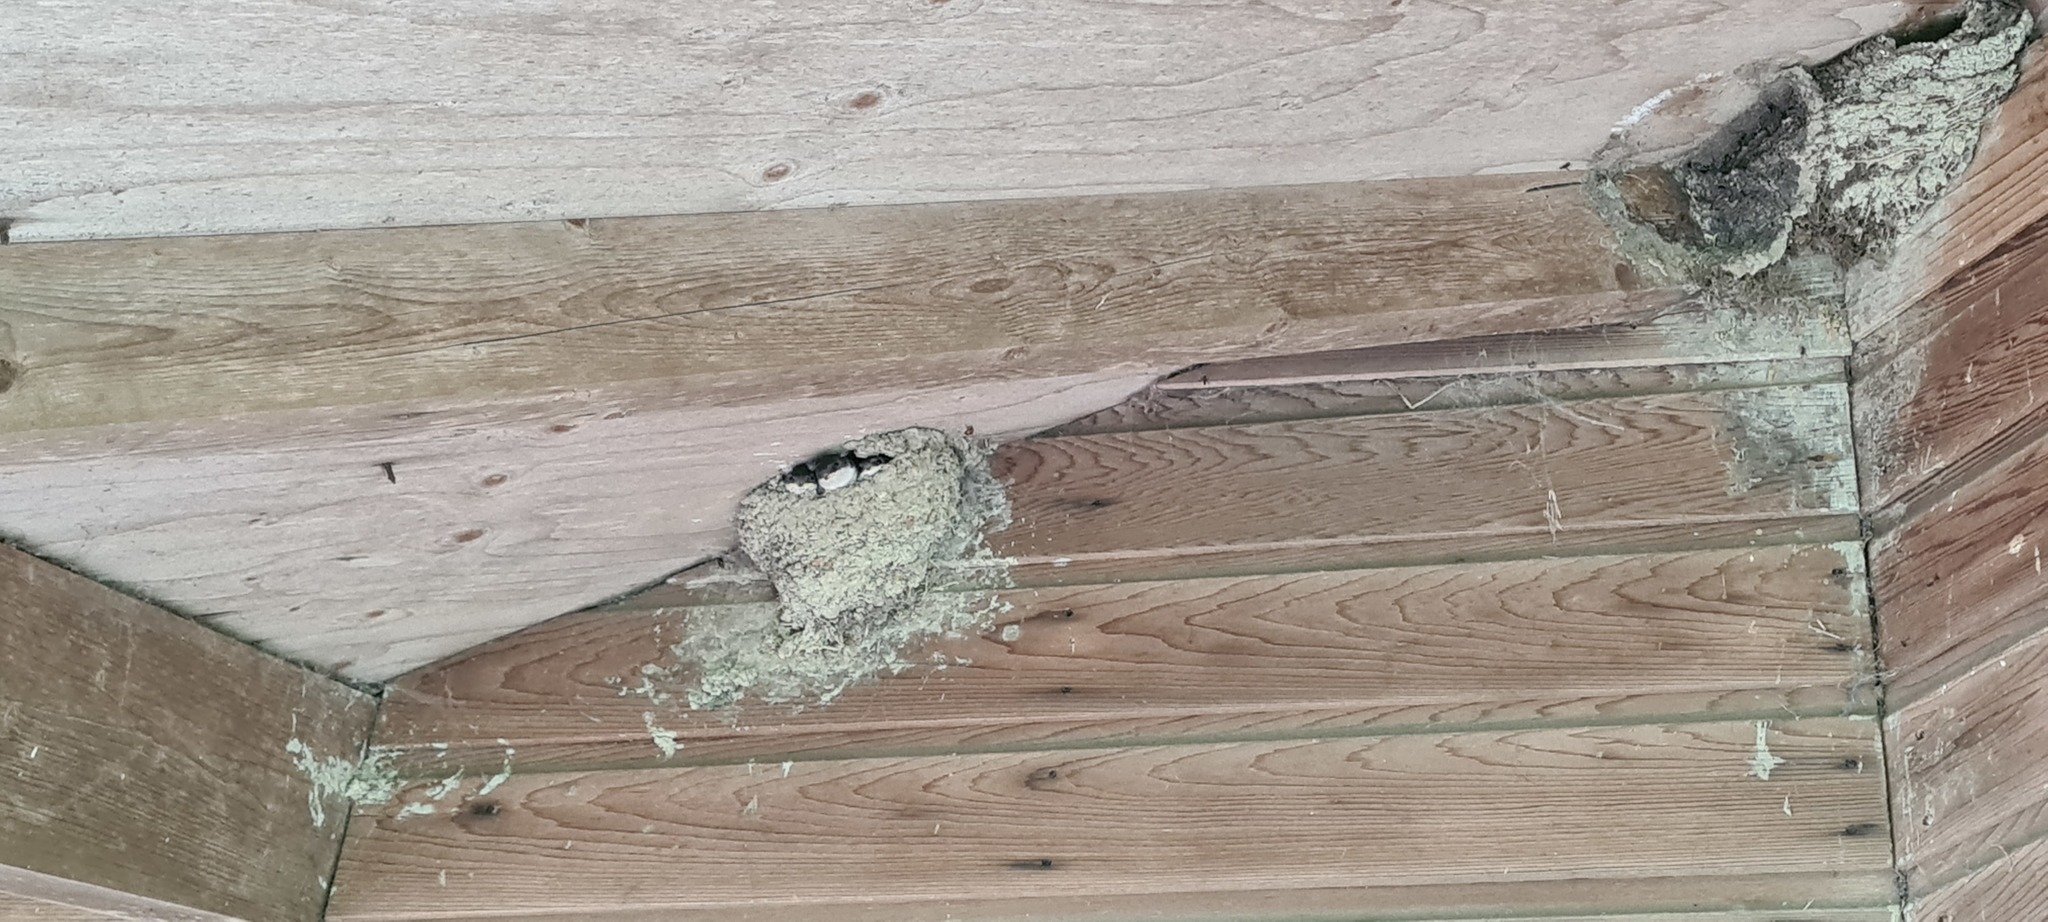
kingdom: Animalia
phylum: Chordata
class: Aves
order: Passeriformes
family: Hirundinidae
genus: Delichon
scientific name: Delichon urbicum
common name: Common house martin
